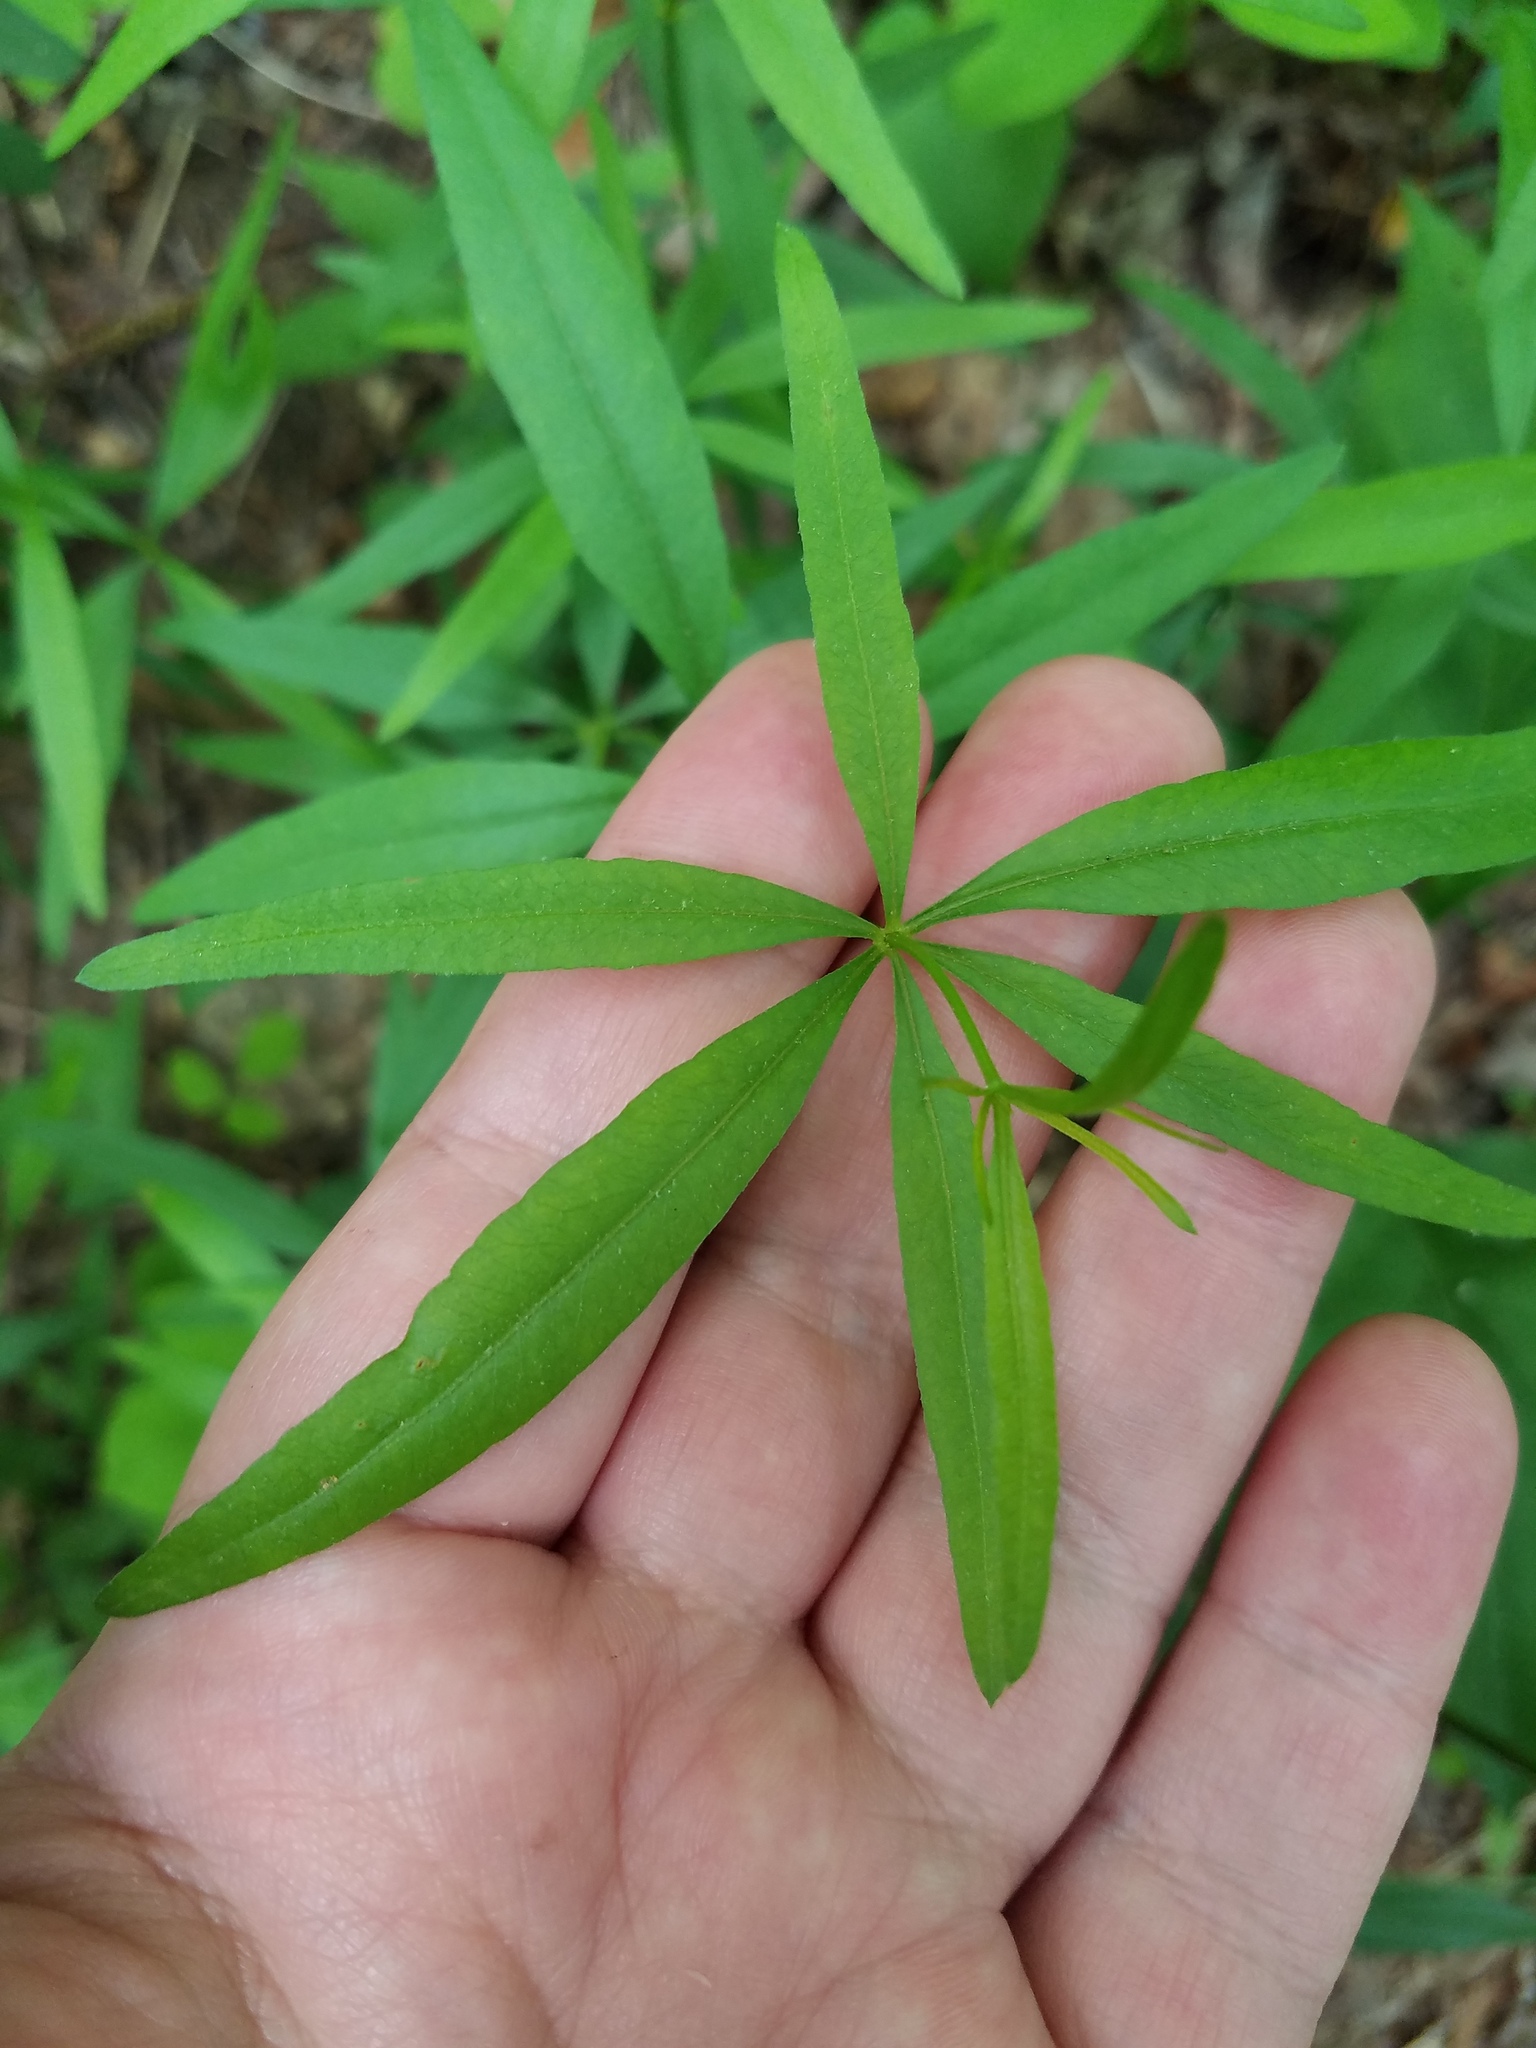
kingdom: Plantae
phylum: Tracheophyta
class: Magnoliopsida
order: Asterales
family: Asteraceae
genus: Coreopsis
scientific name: Coreopsis major
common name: Forest tickseed
